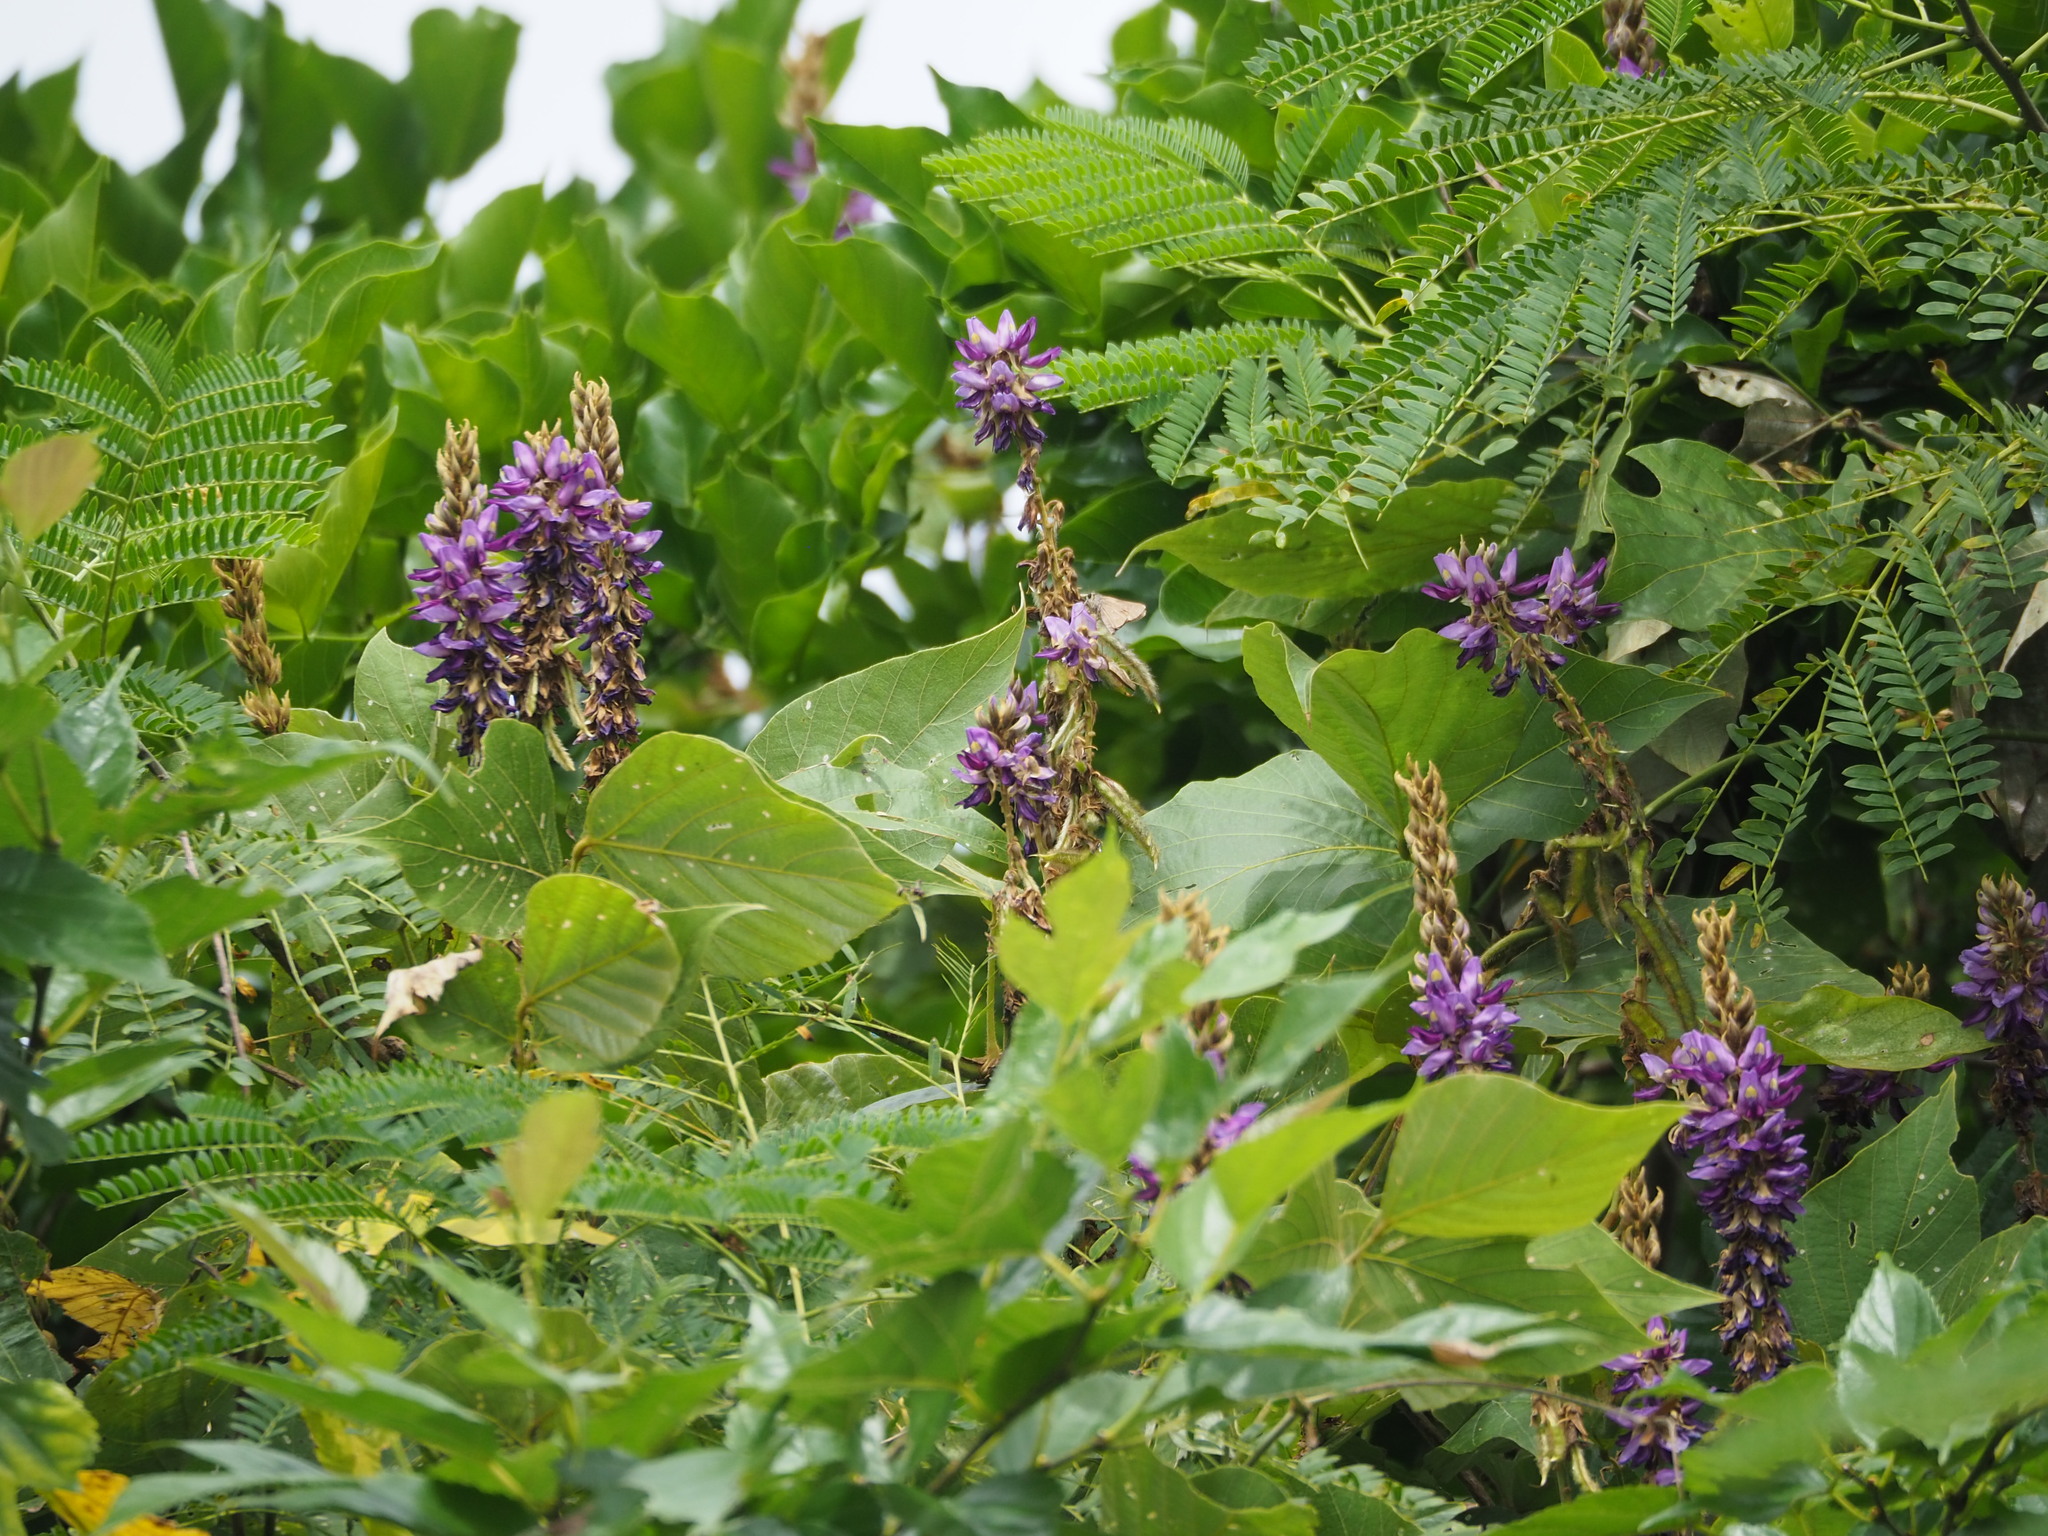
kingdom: Plantae
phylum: Tracheophyta
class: Magnoliopsida
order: Fabales
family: Fabaceae
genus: Pueraria
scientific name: Pueraria montana
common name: Kudzu
